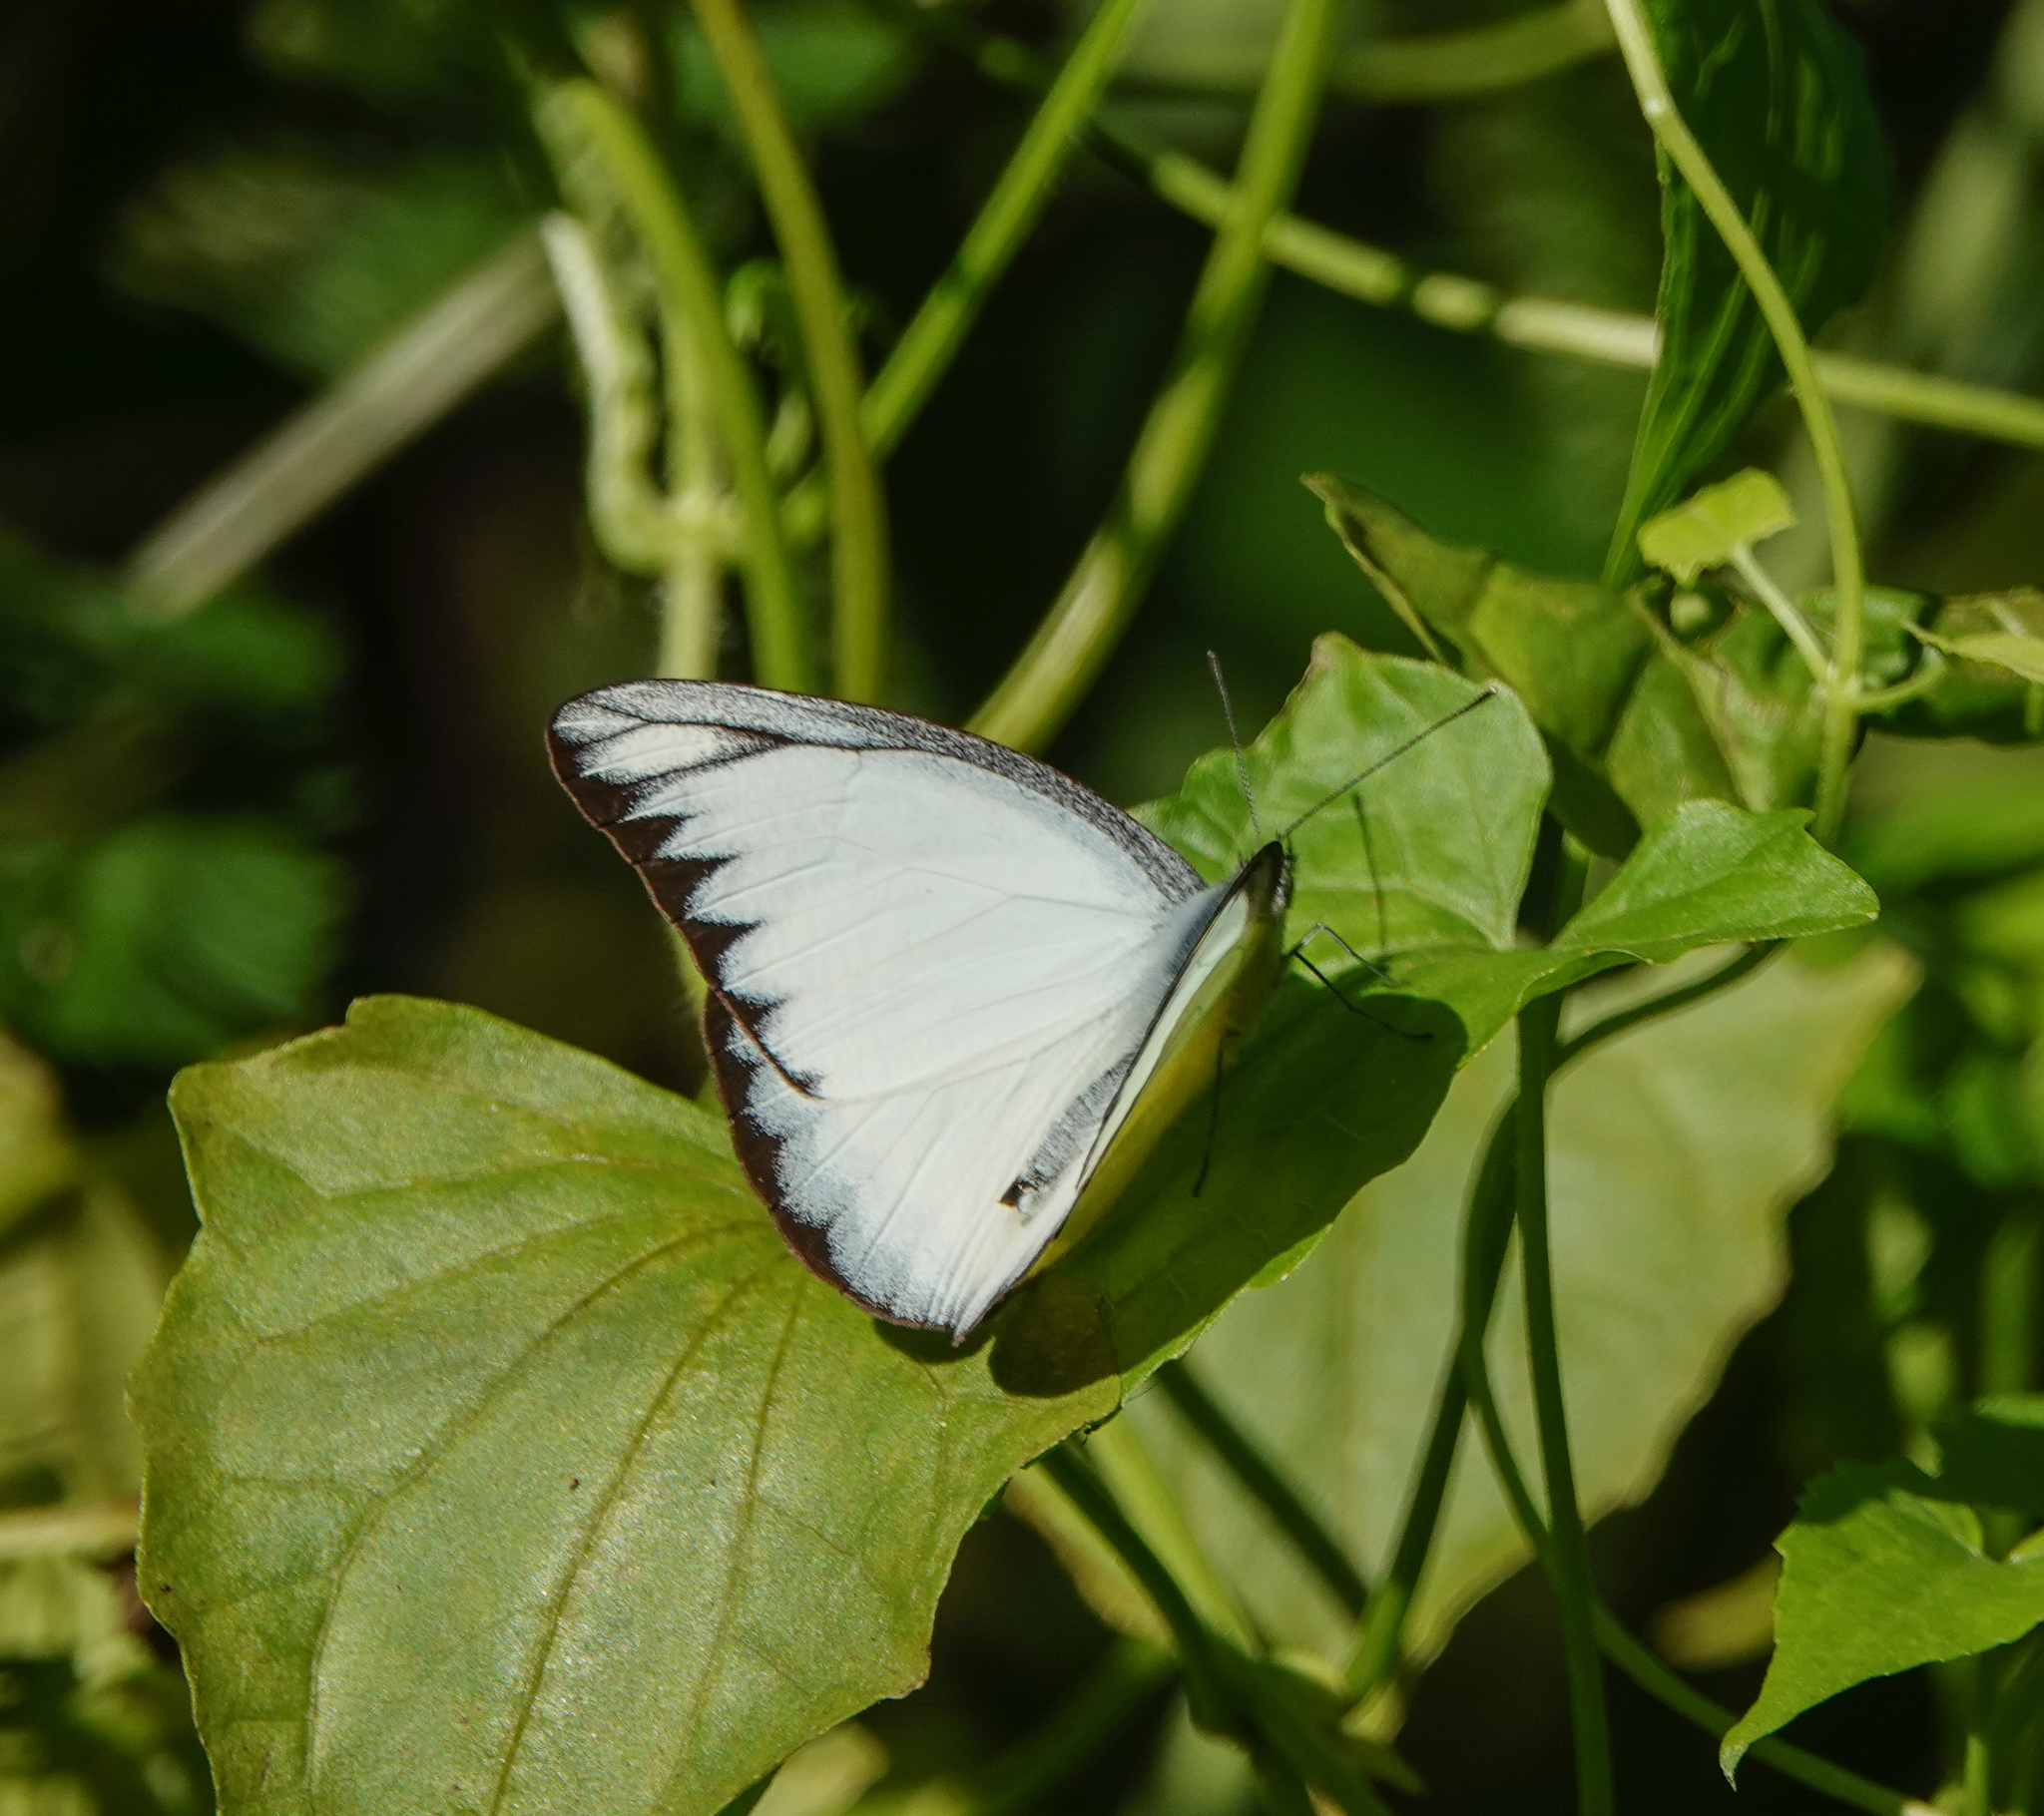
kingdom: Animalia
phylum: Arthropoda
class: Insecta
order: Lepidoptera
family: Pieridae
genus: Appias
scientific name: Appias lyncida
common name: Chocolate albatross
